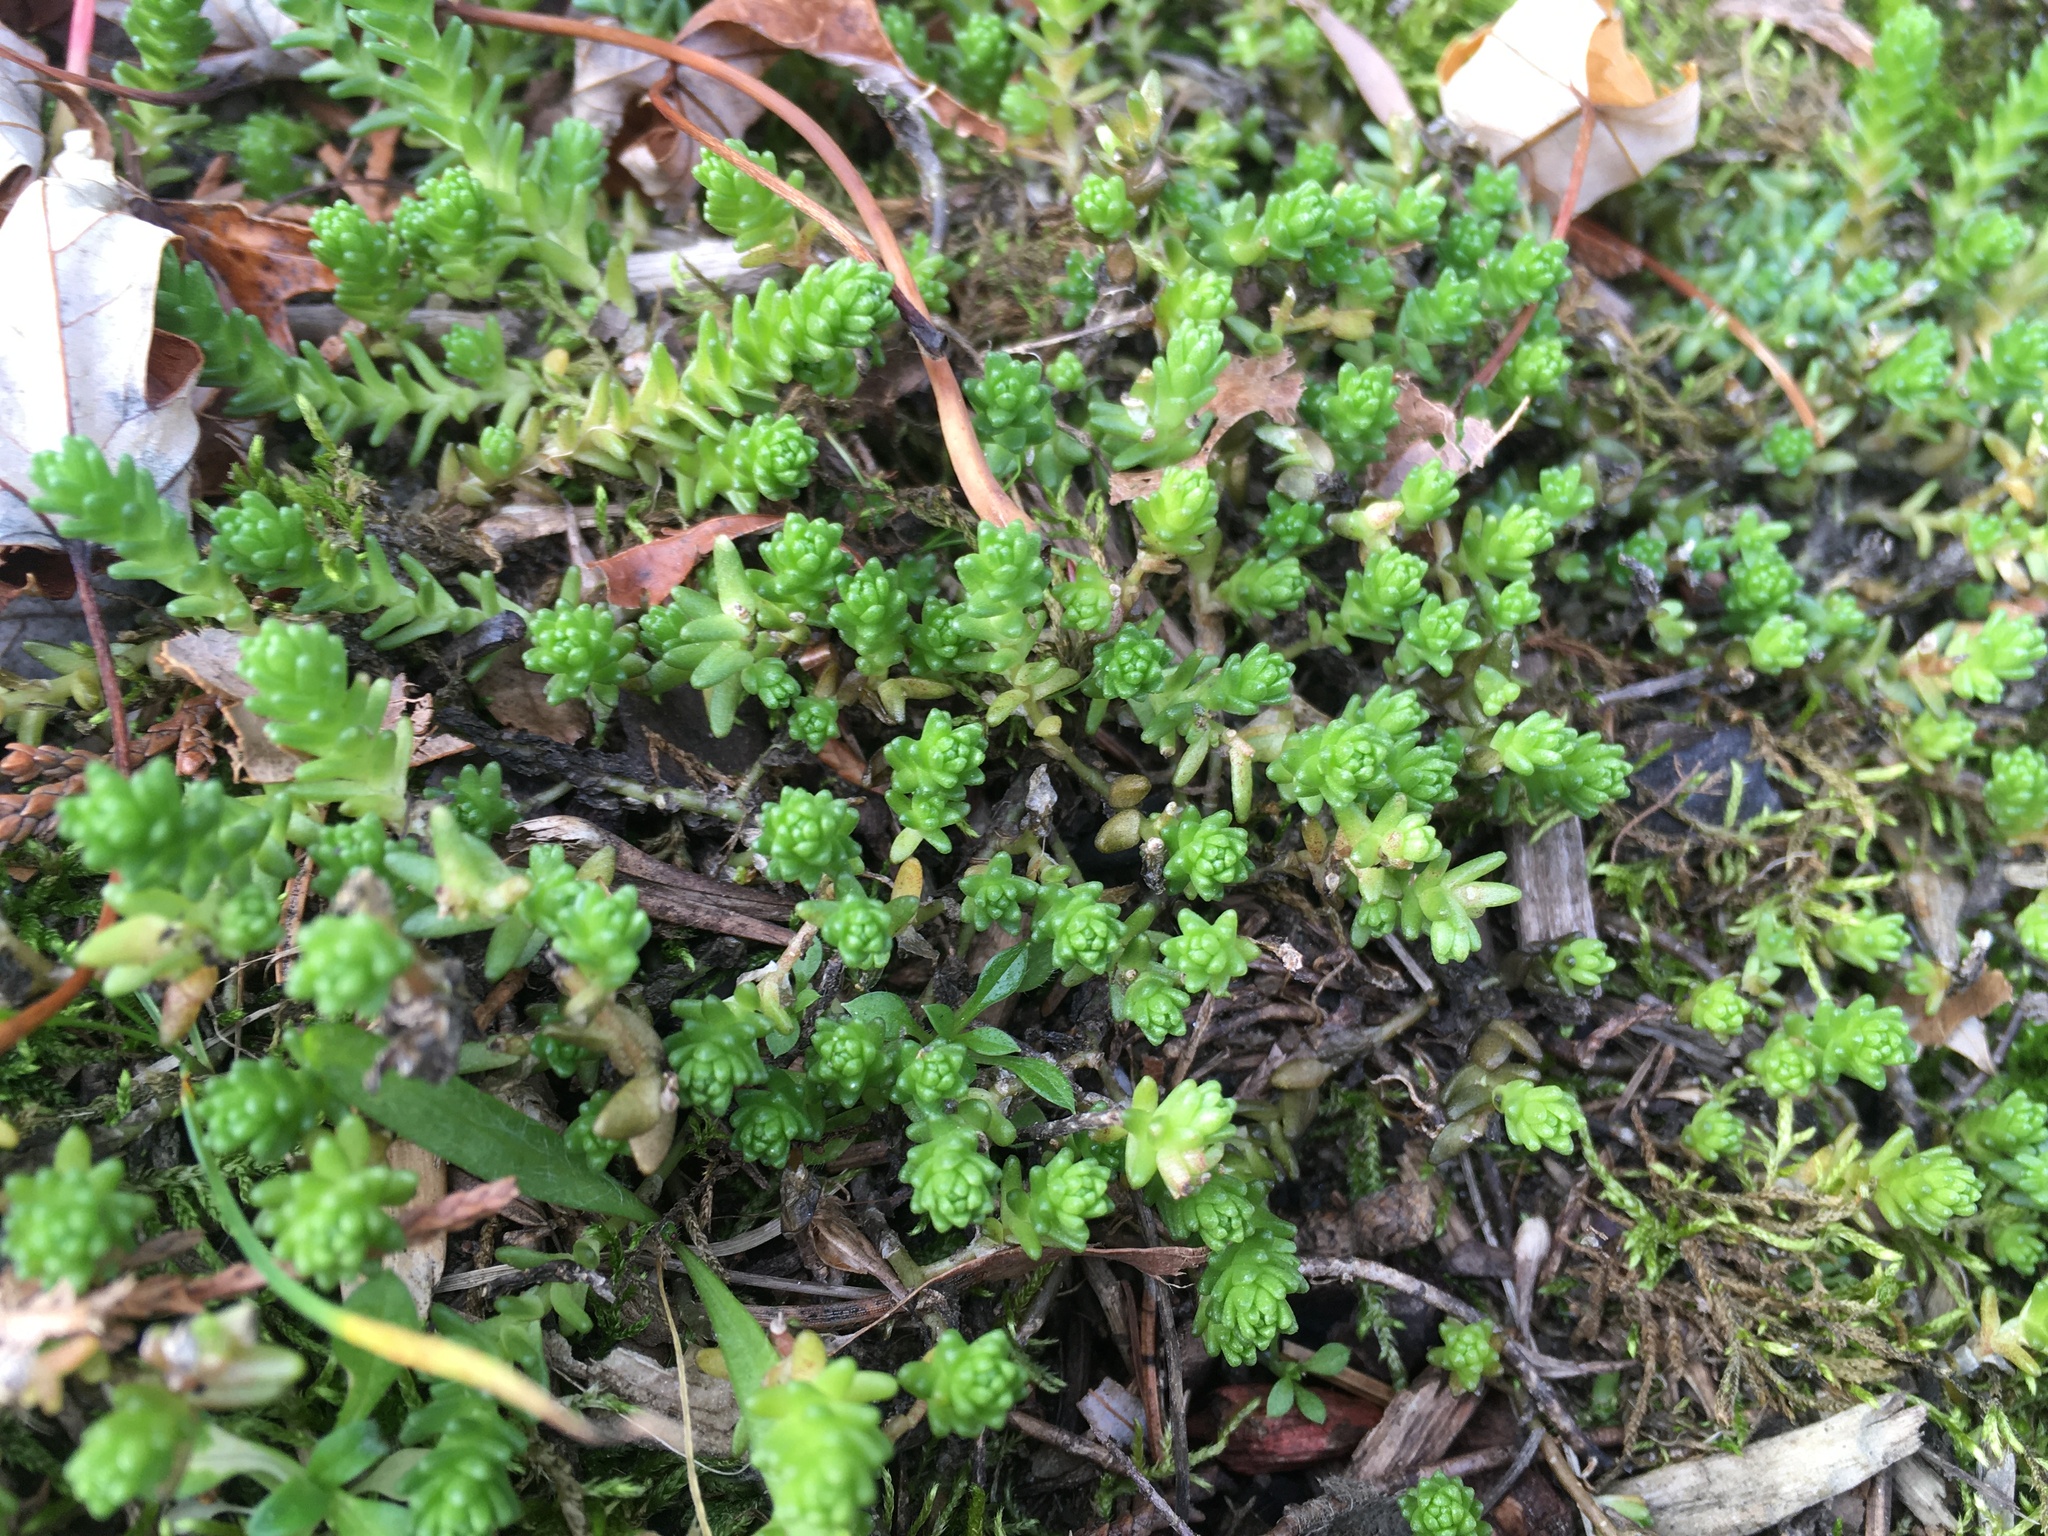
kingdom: Plantae
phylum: Tracheophyta
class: Magnoliopsida
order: Saxifragales
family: Crassulaceae
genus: Sedum
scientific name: Sedum acre
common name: Biting stonecrop
